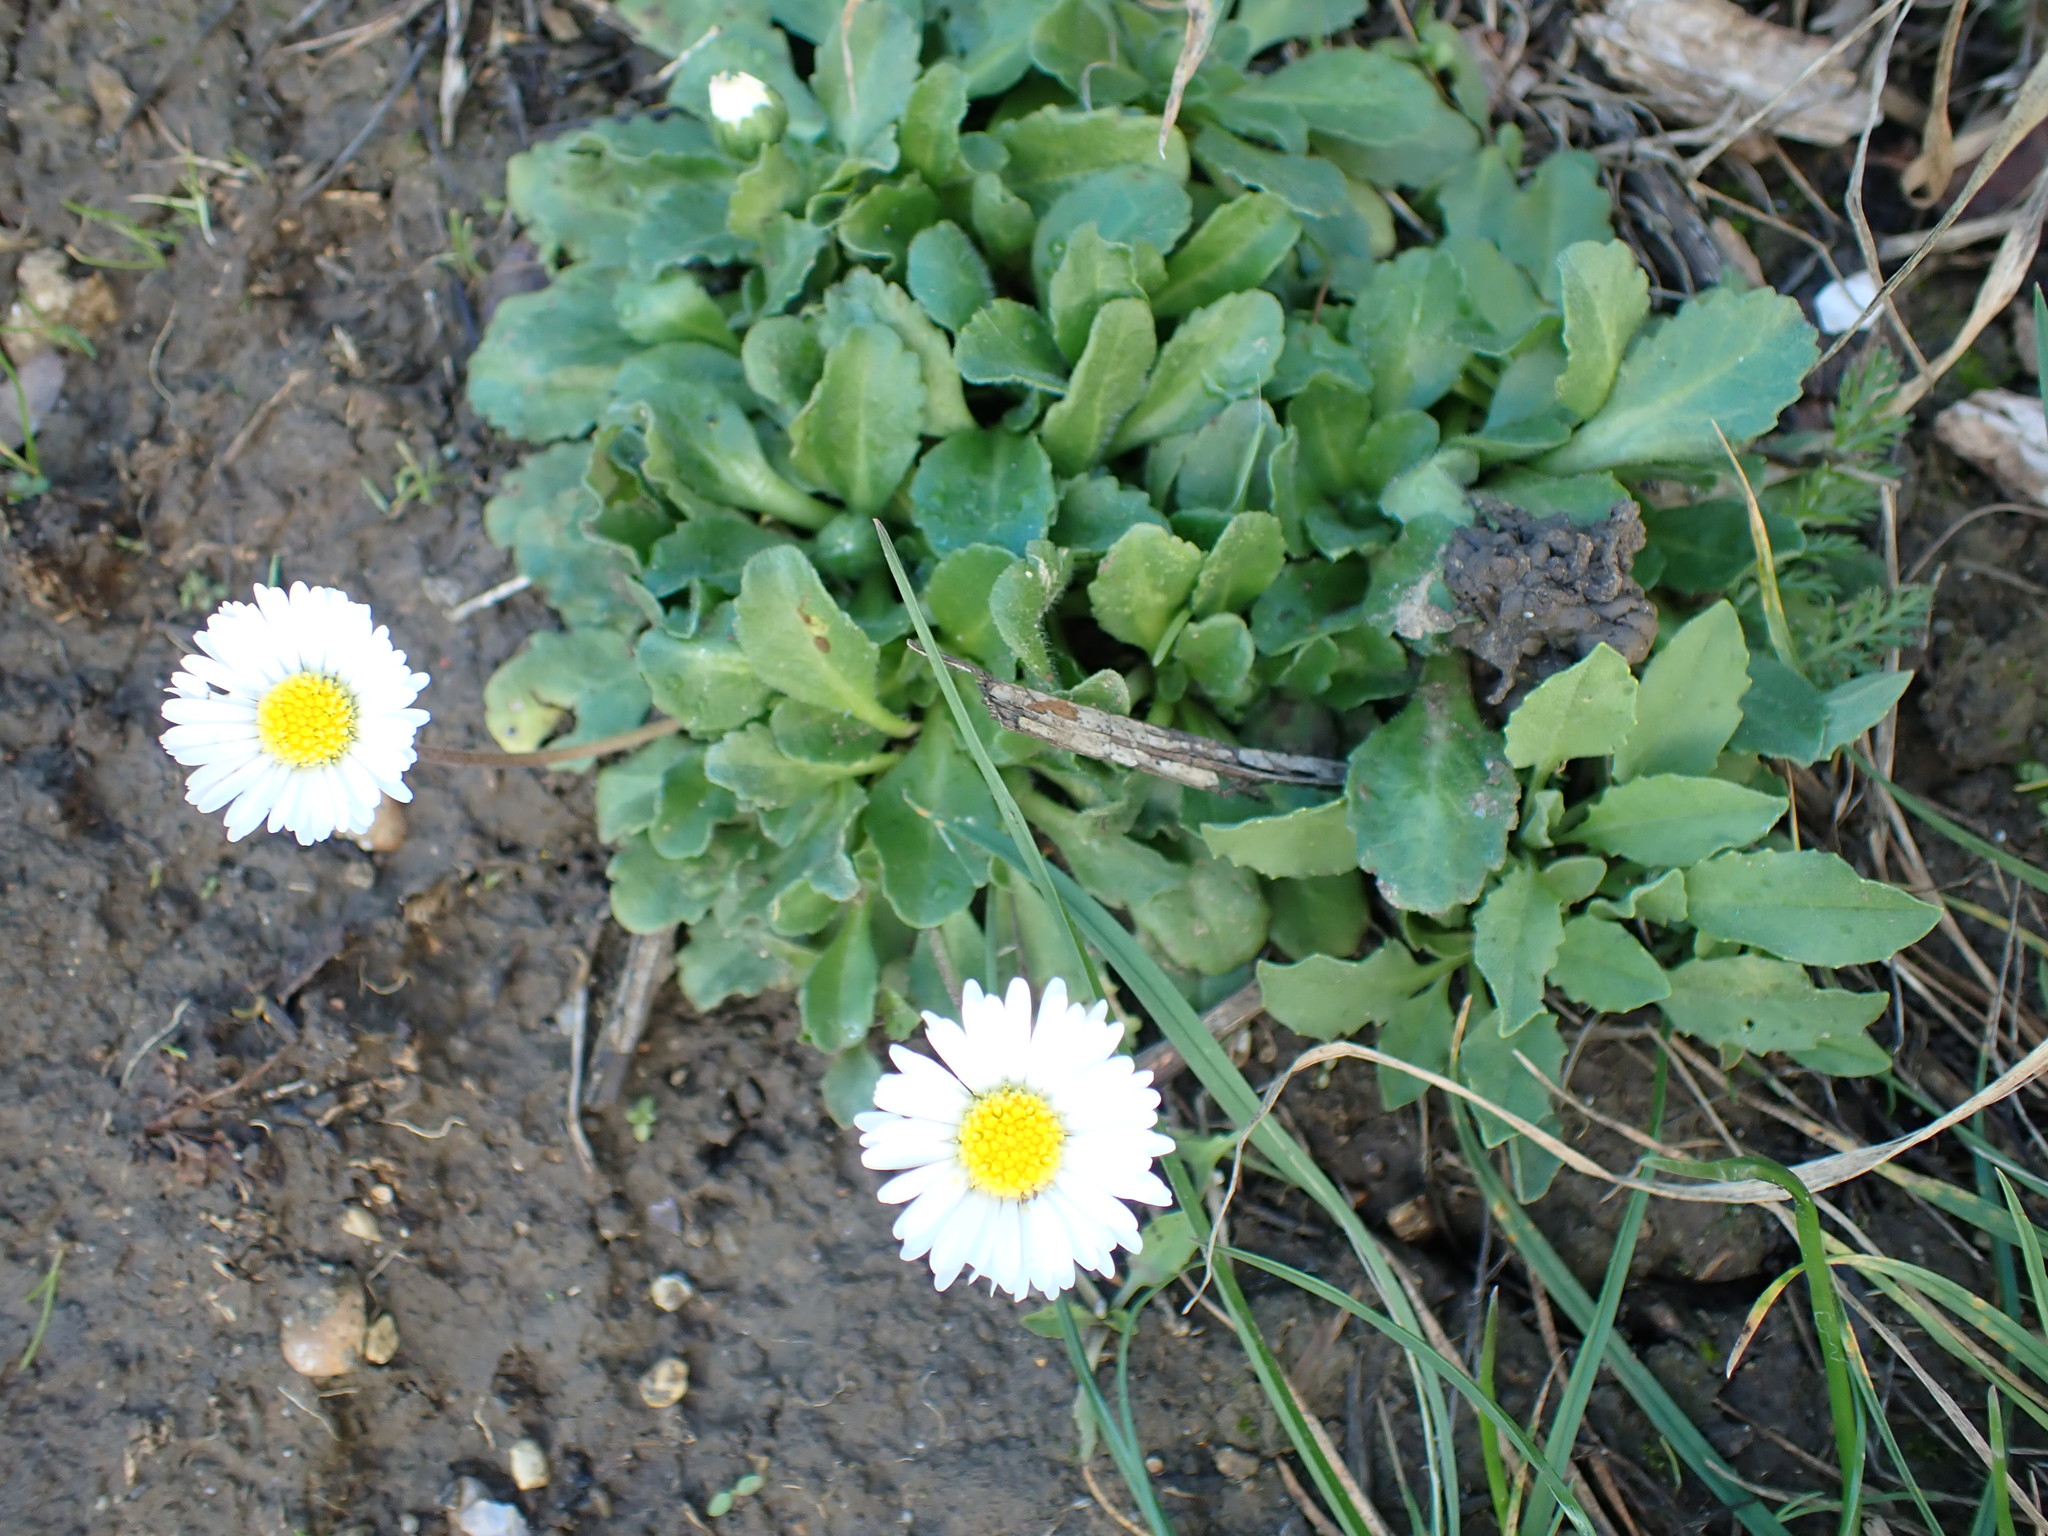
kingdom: Plantae
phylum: Tracheophyta
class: Magnoliopsida
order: Asterales
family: Asteraceae
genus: Bellis
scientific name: Bellis perennis
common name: Lawndaisy
